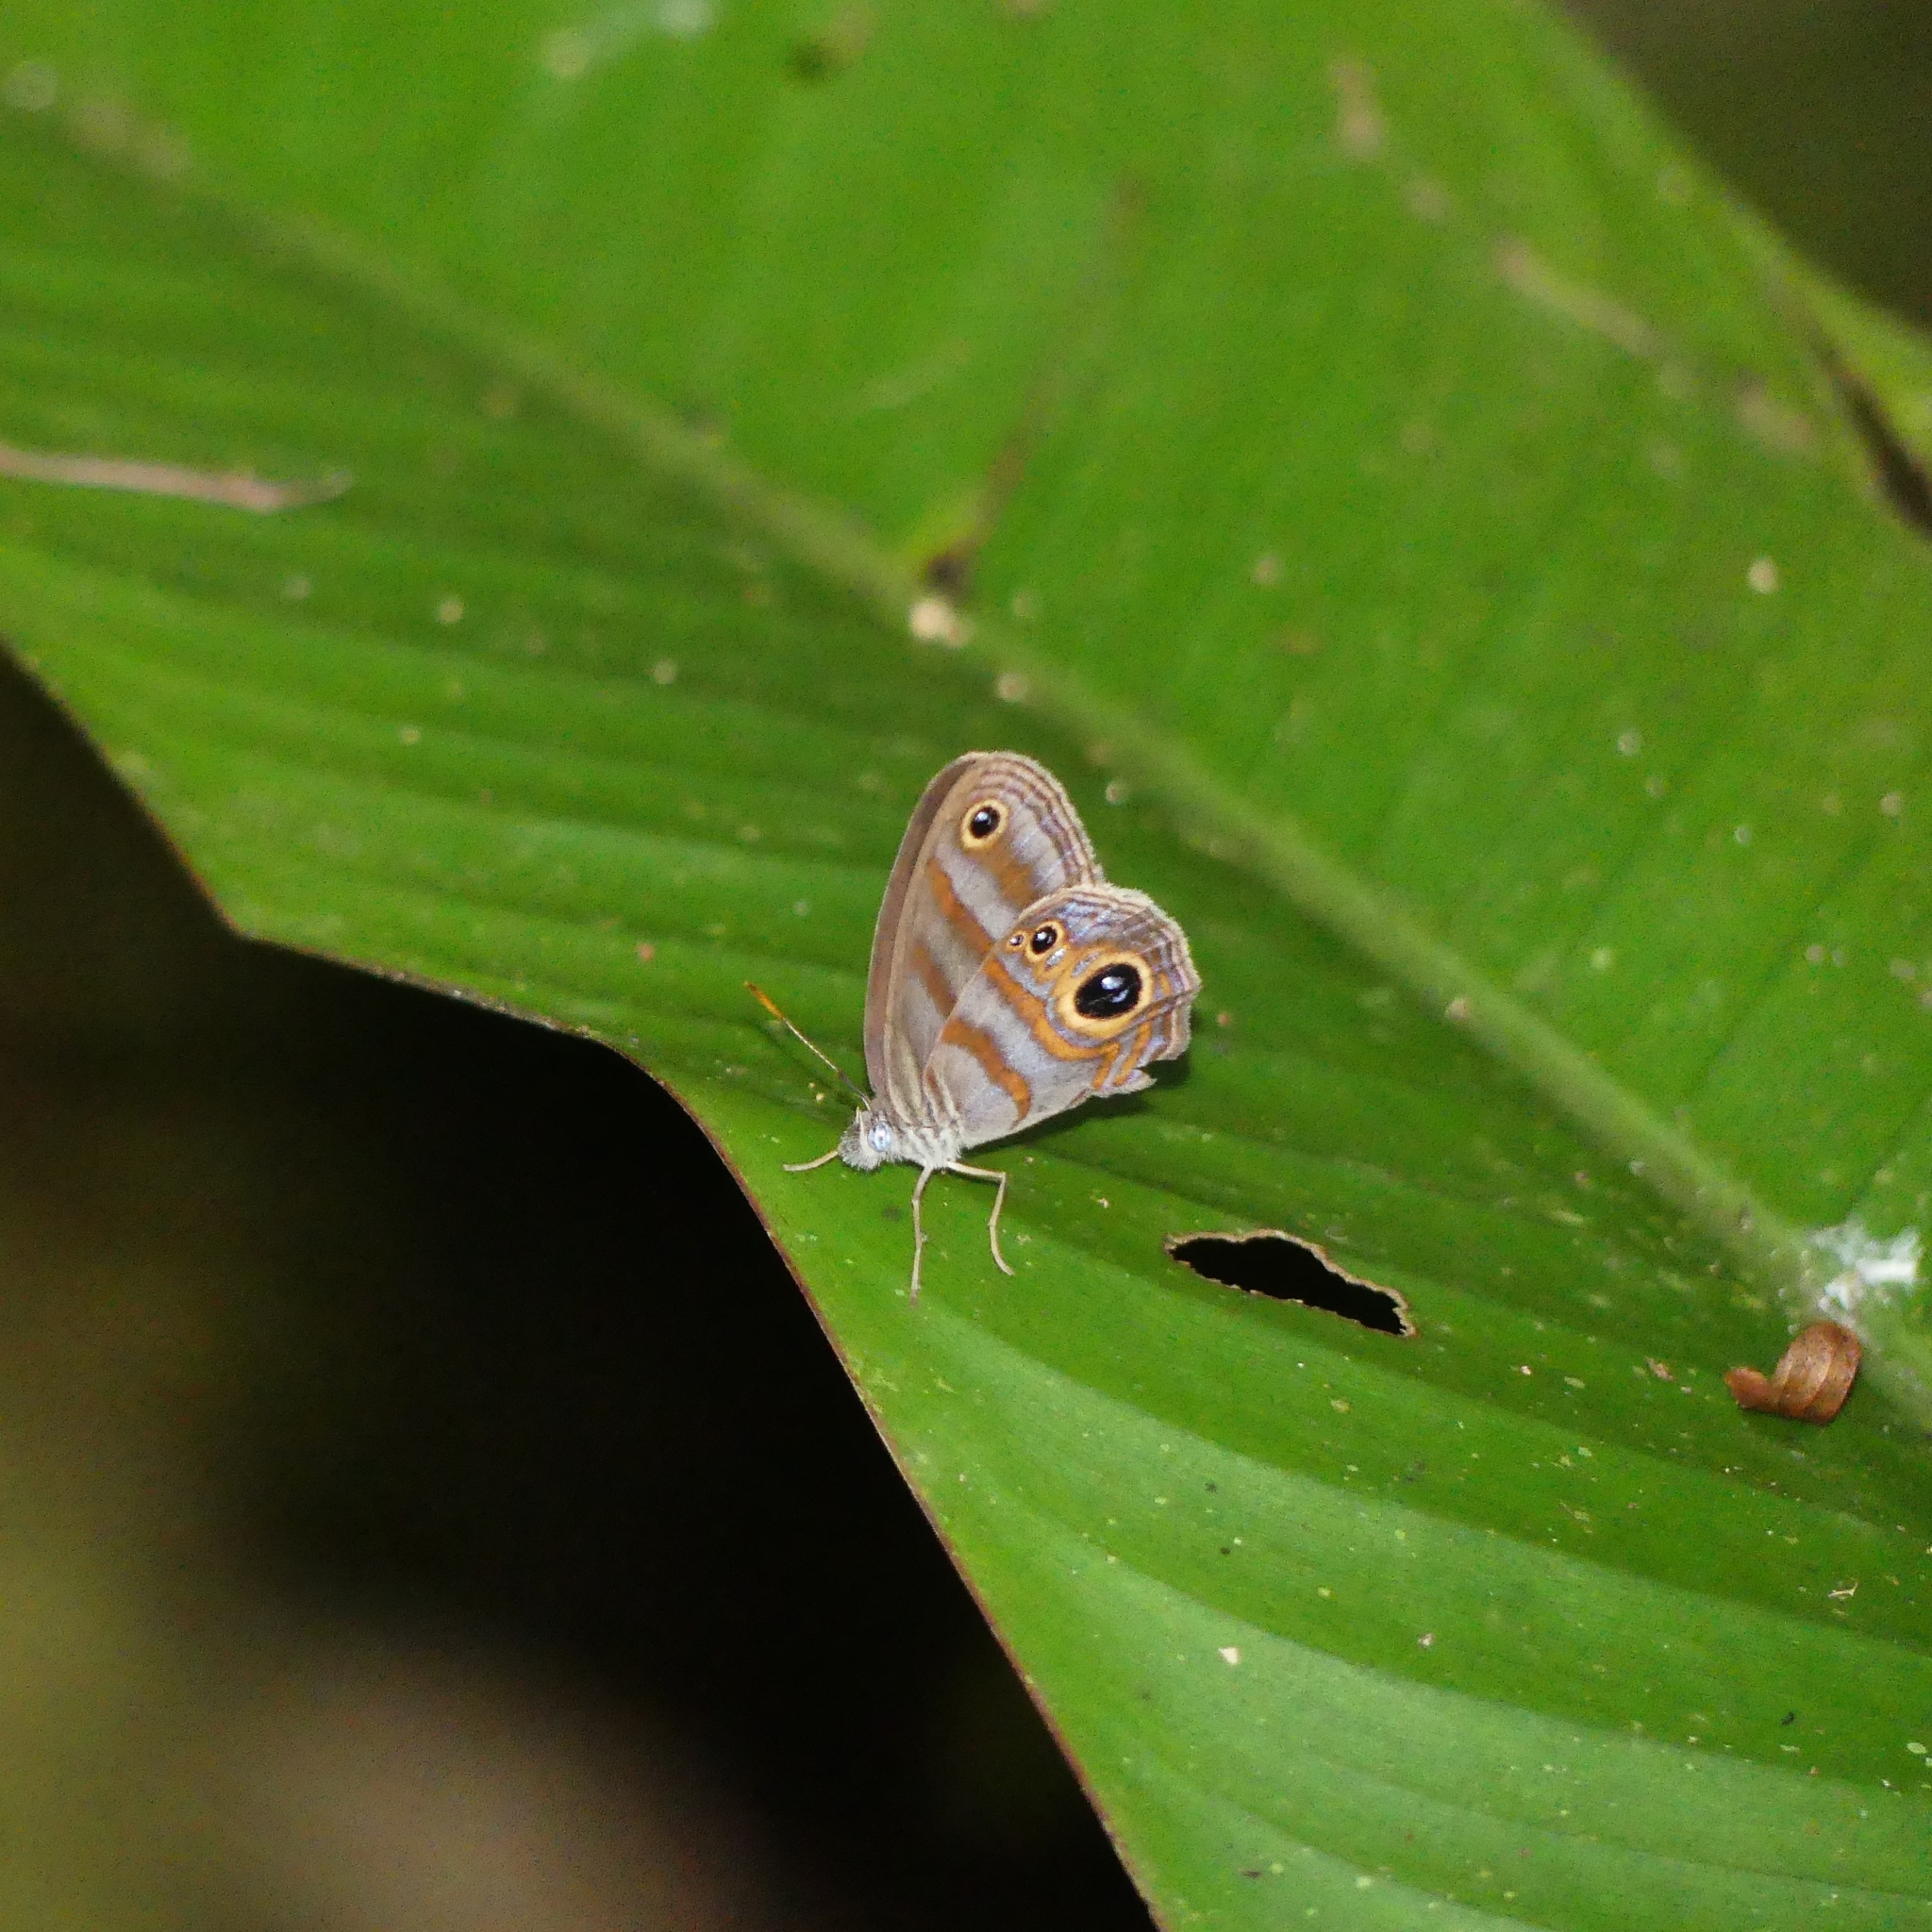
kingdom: Animalia
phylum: Arthropoda
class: Insecta
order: Lepidoptera
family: Nymphalidae
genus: Lazulina
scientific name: Lazulina
